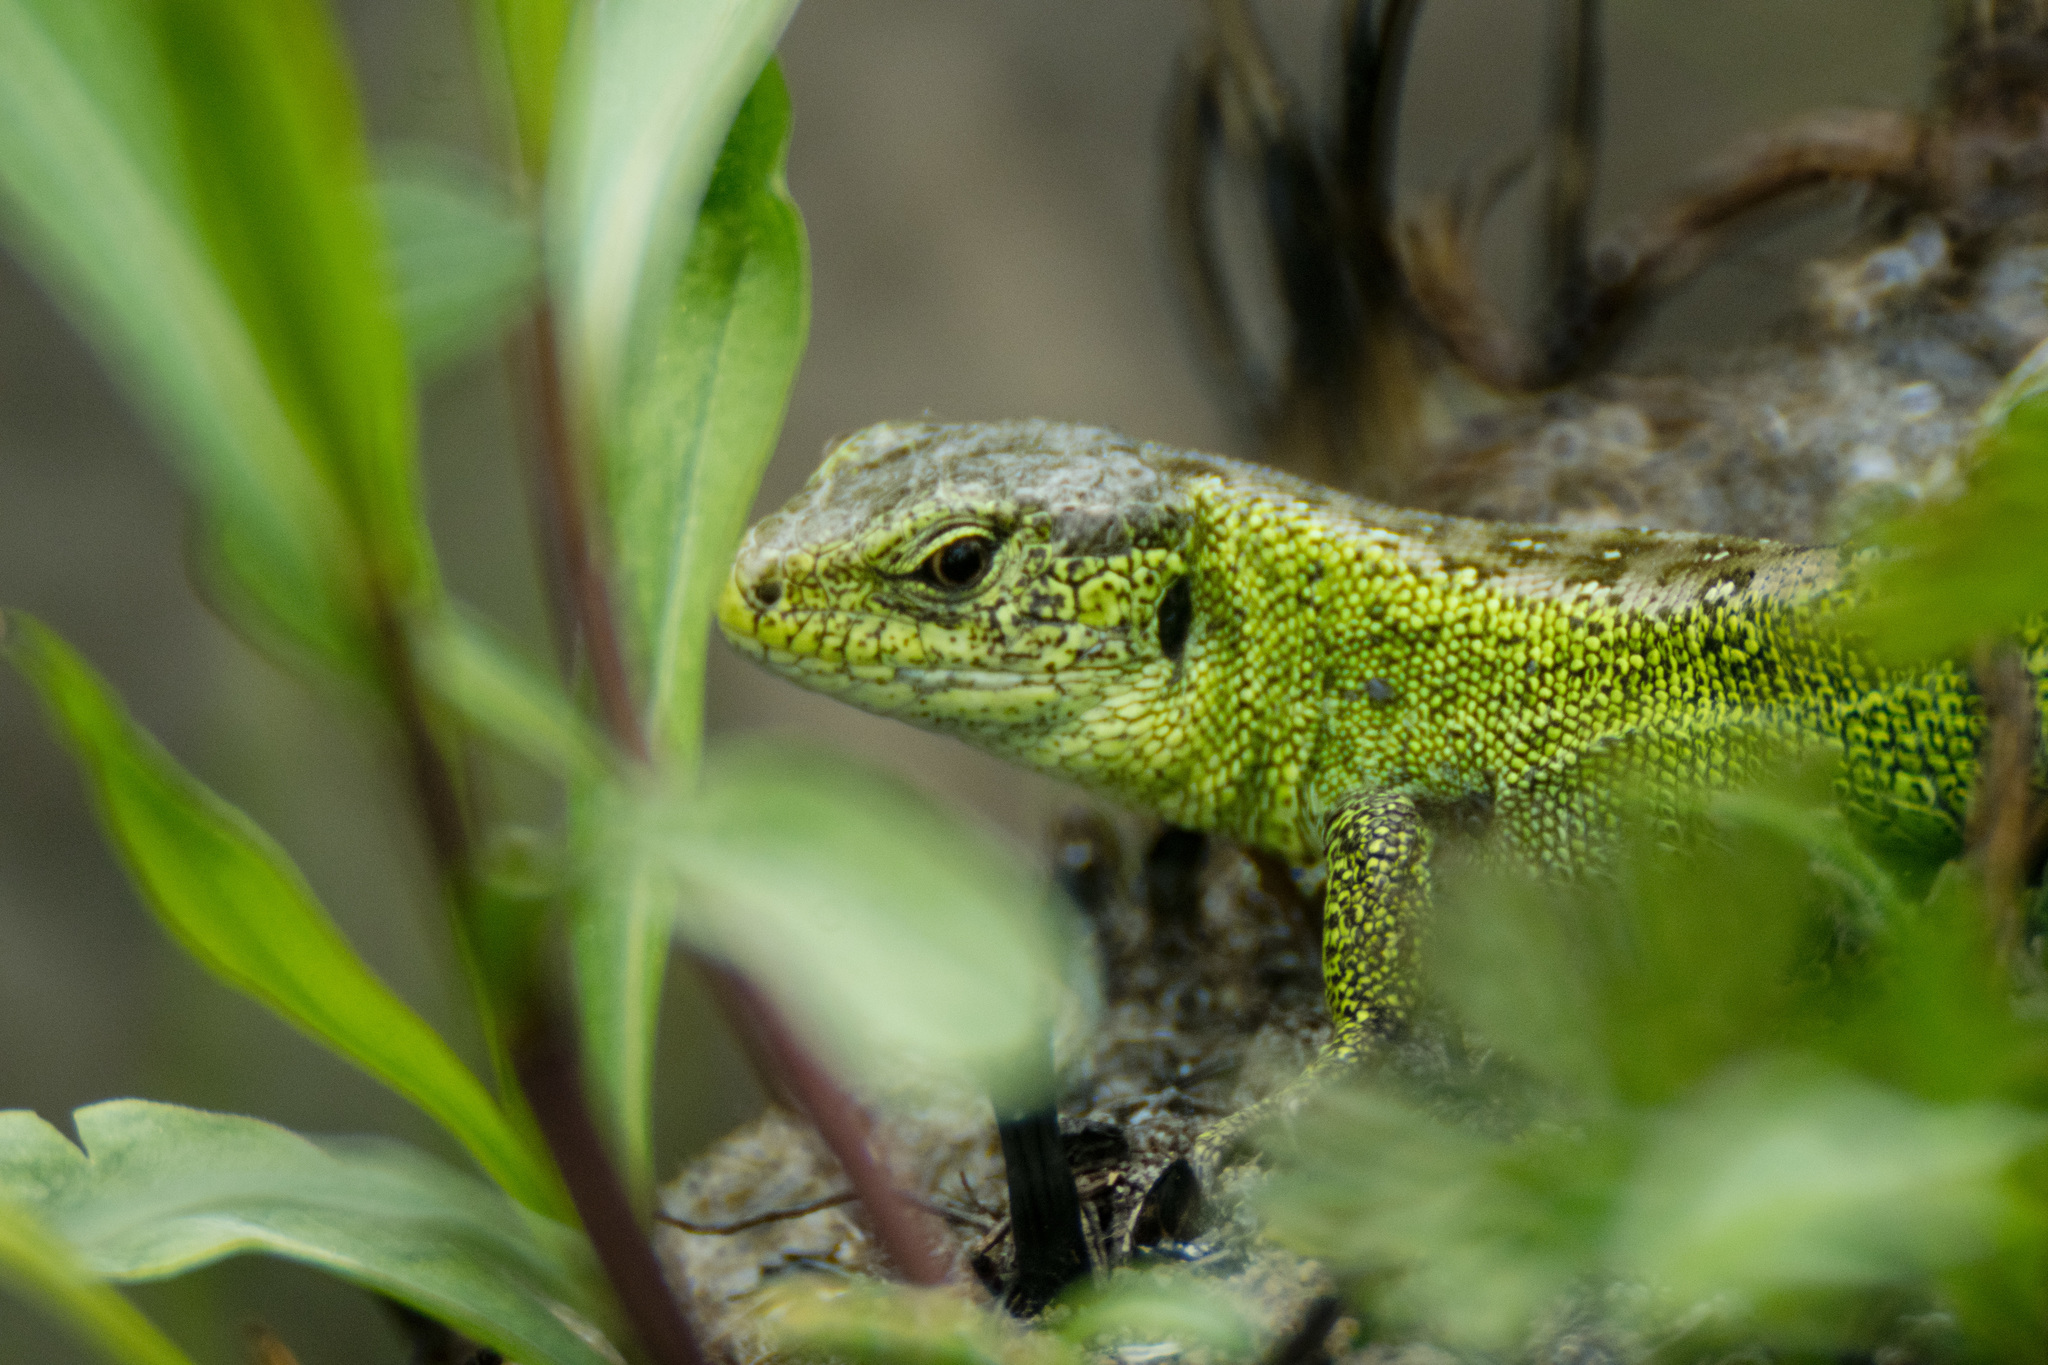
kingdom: Animalia
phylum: Chordata
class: Squamata
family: Lacertidae
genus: Lacerta
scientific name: Lacerta agilis
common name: Sand lizard
